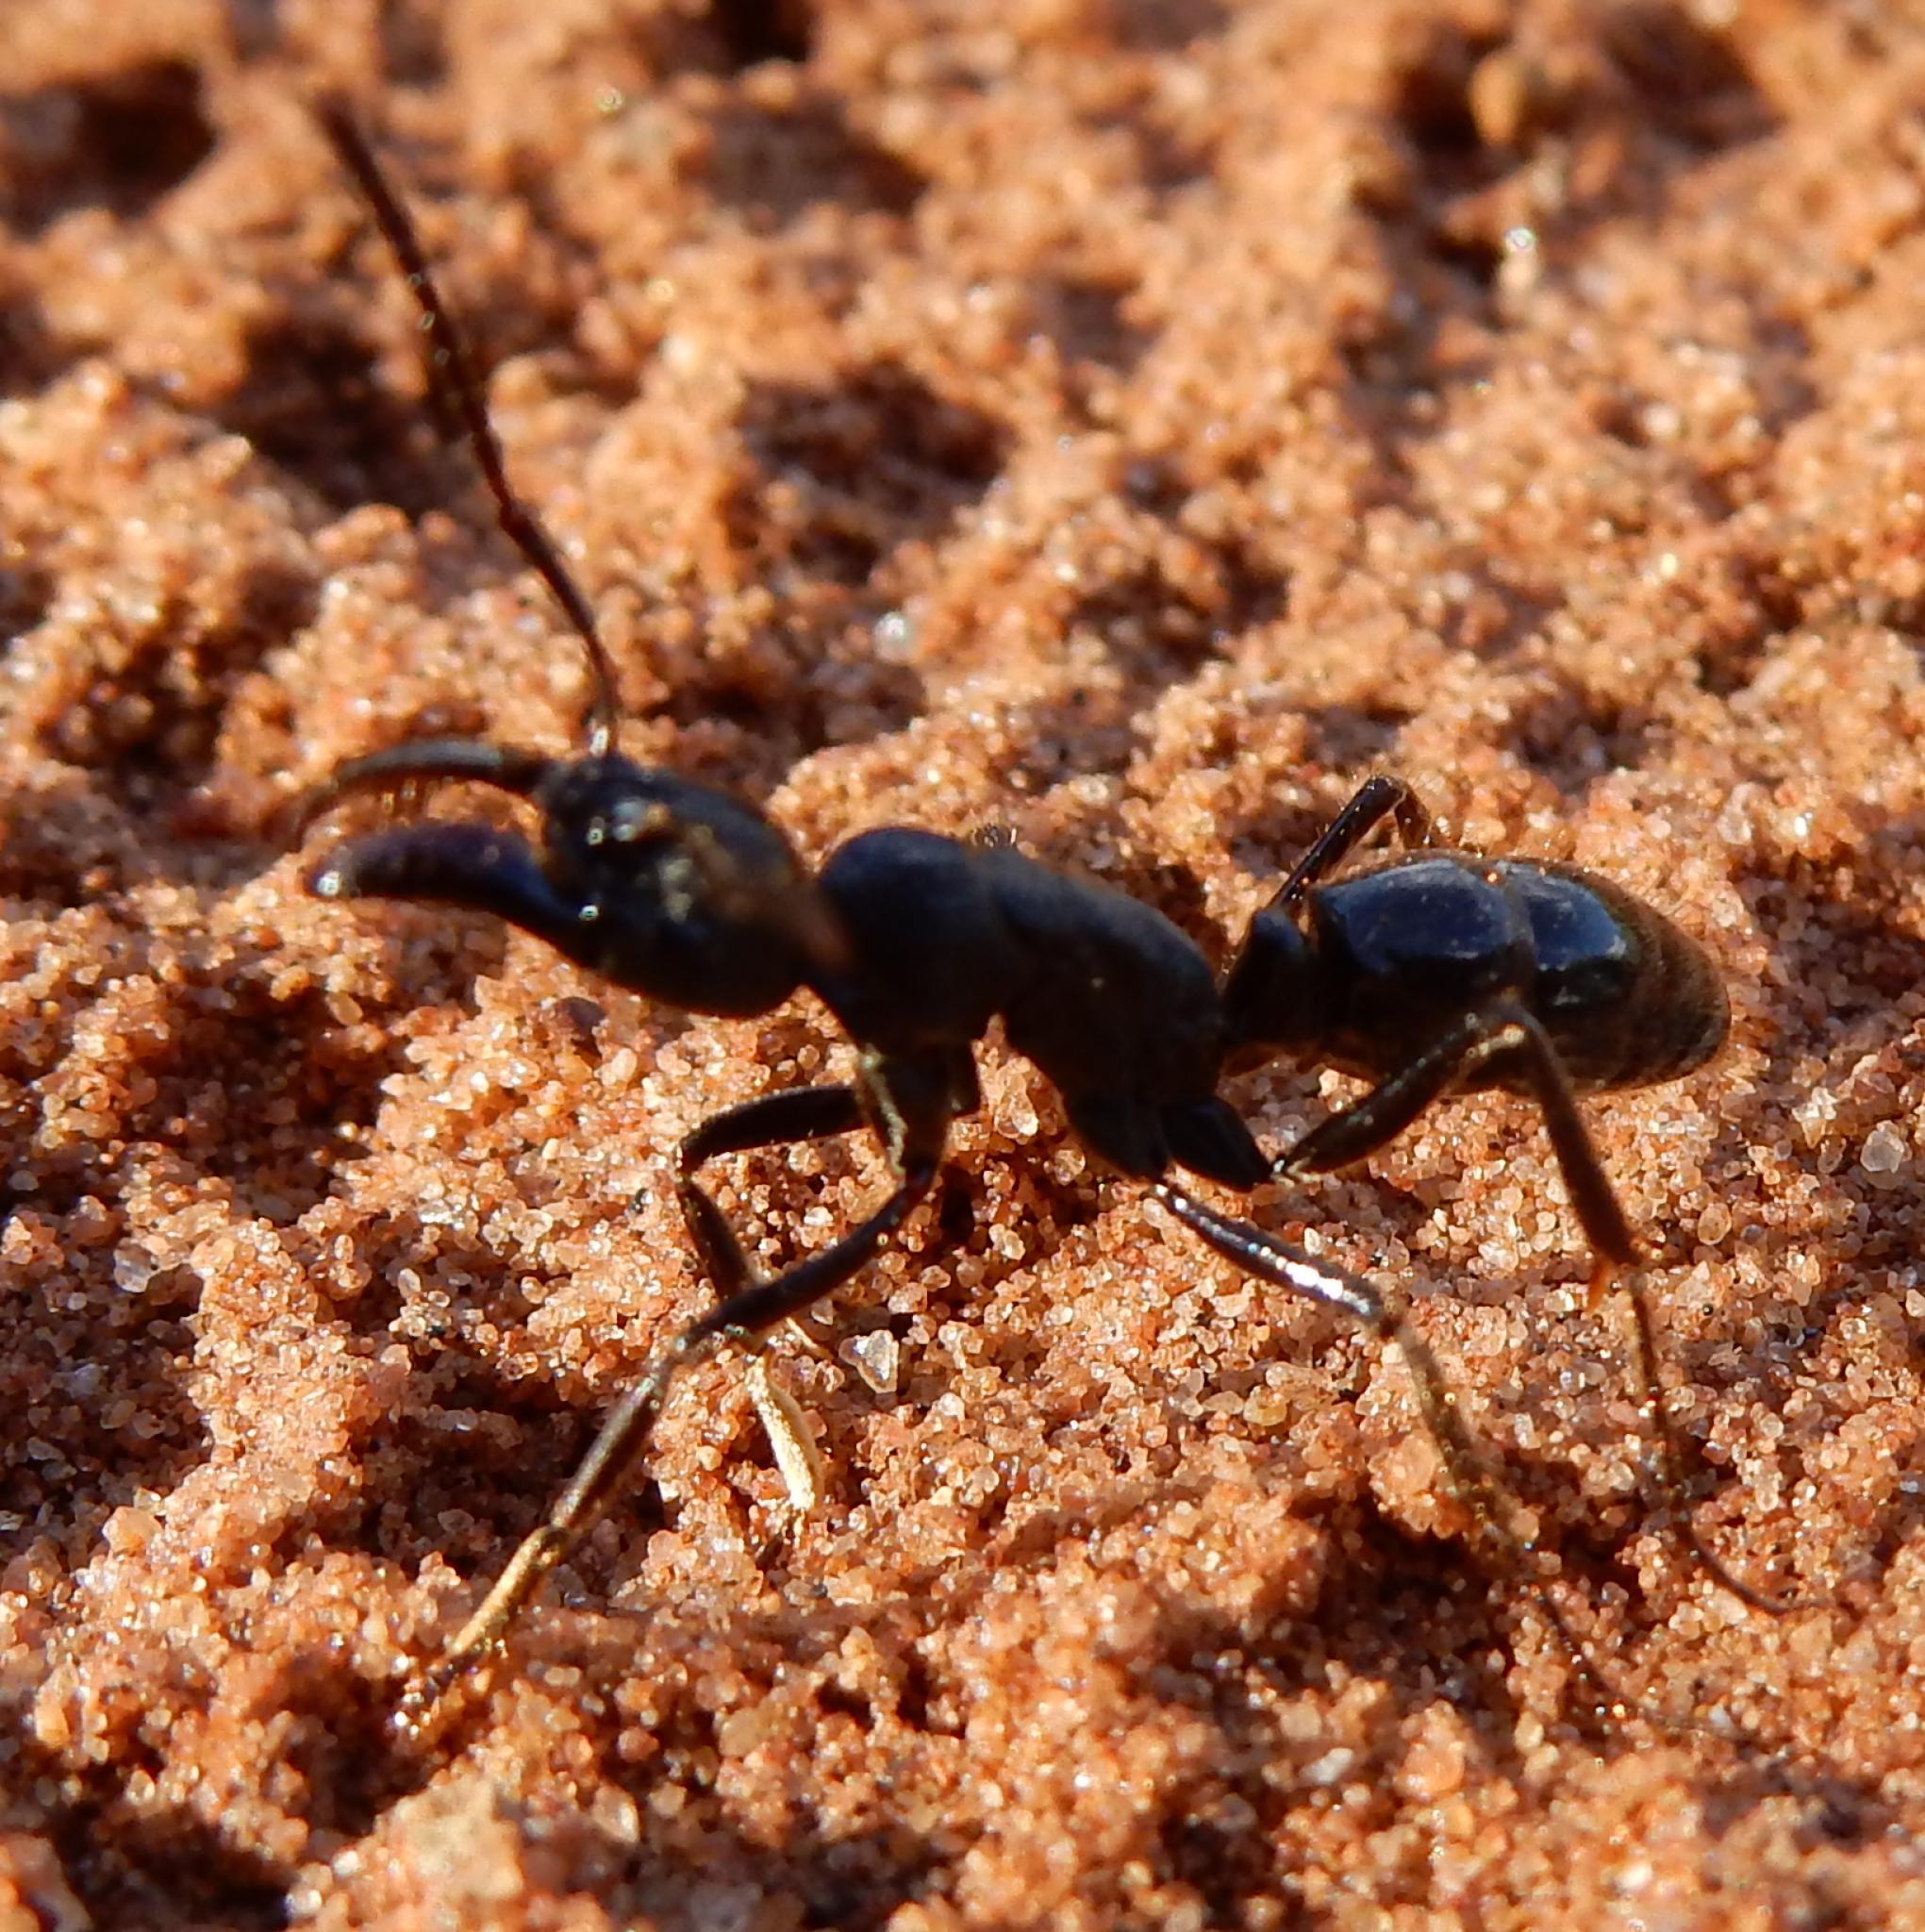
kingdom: Animalia
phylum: Arthropoda
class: Insecta
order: Hymenoptera
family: Formicidae
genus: Paltothyreus
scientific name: Paltothyreus tarsatus
